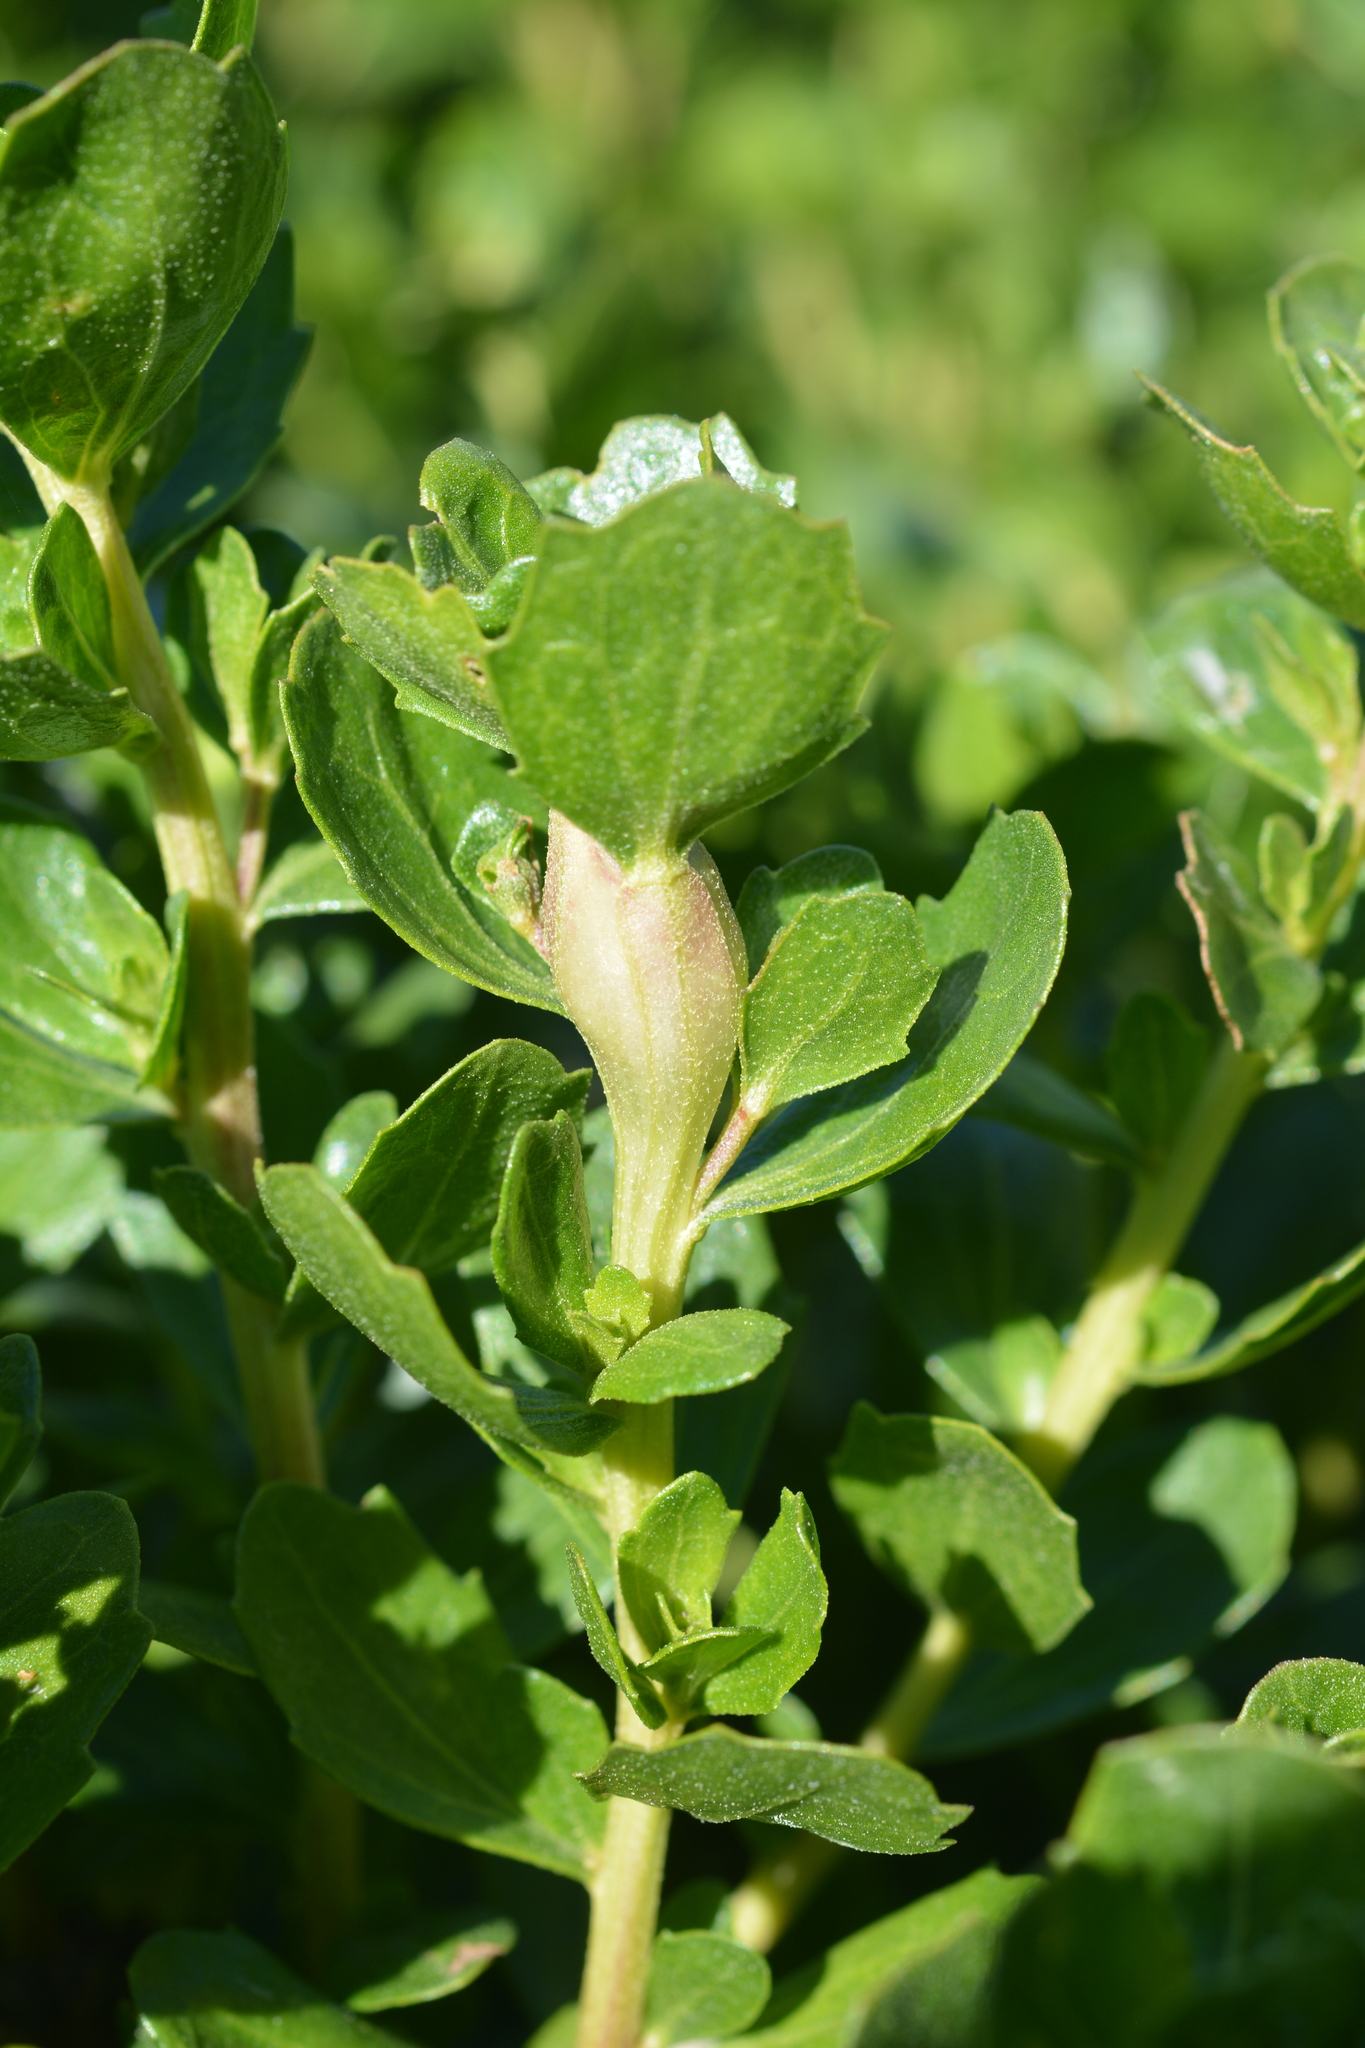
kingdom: Animalia
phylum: Arthropoda
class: Insecta
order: Lepidoptera
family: Gelechiidae
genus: Gnorimoschema
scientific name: Gnorimoschema baccharisella
